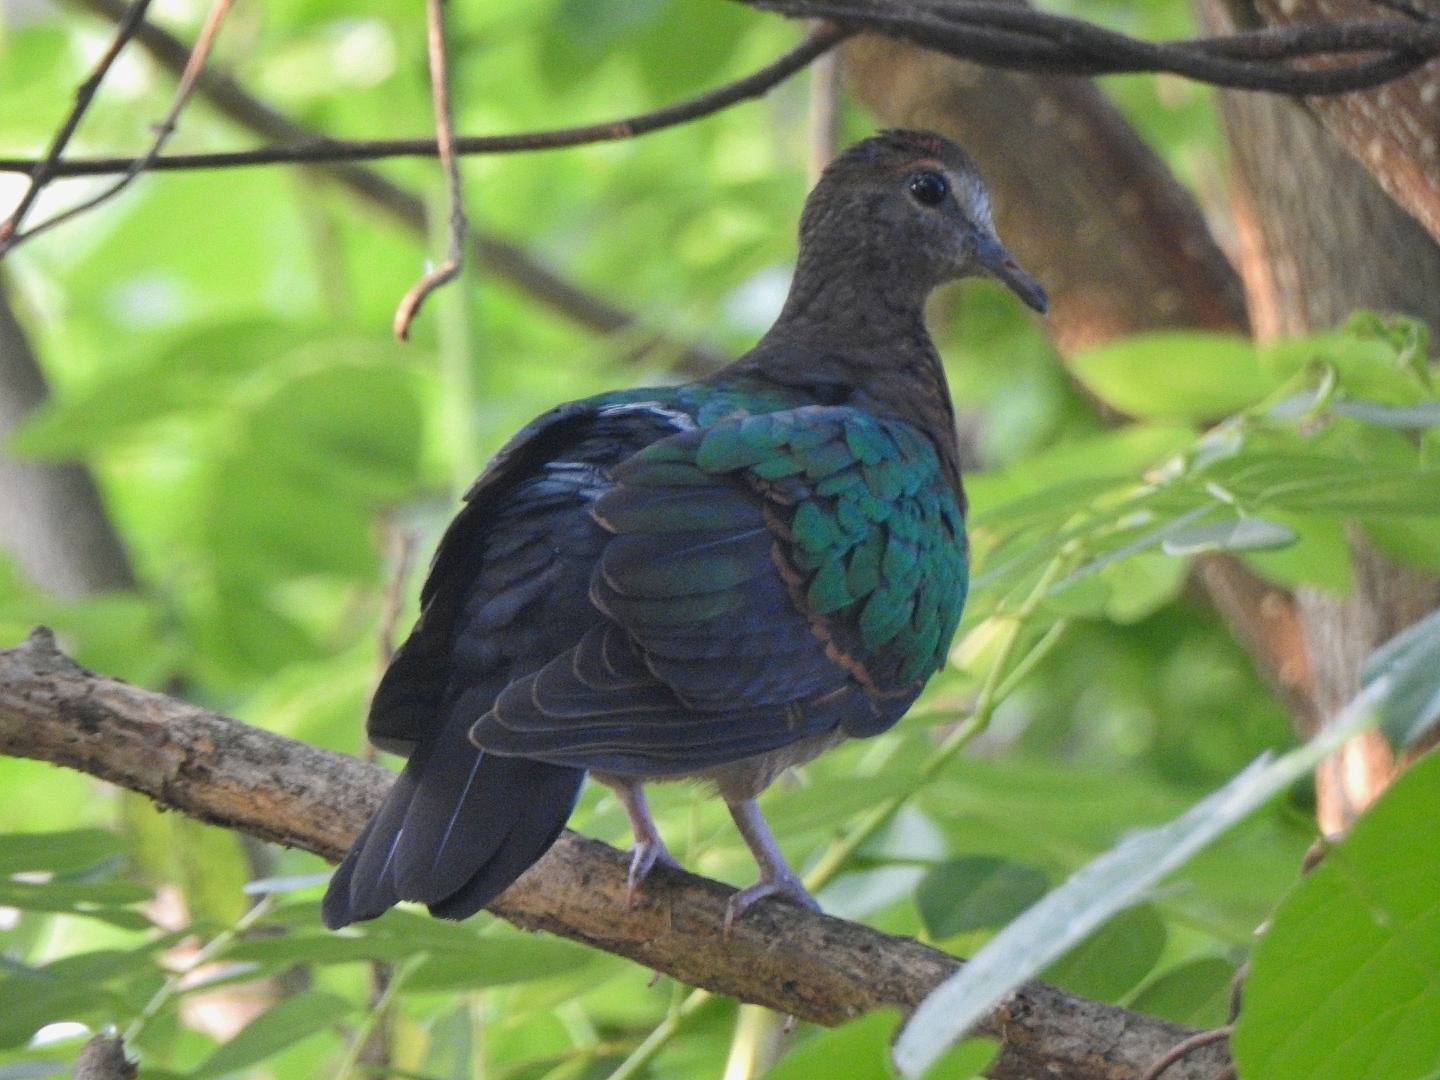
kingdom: Animalia
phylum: Chordata
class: Aves
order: Columbiformes
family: Columbidae
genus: Chalcophaps
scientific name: Chalcophaps indica
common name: Common emerald dove
